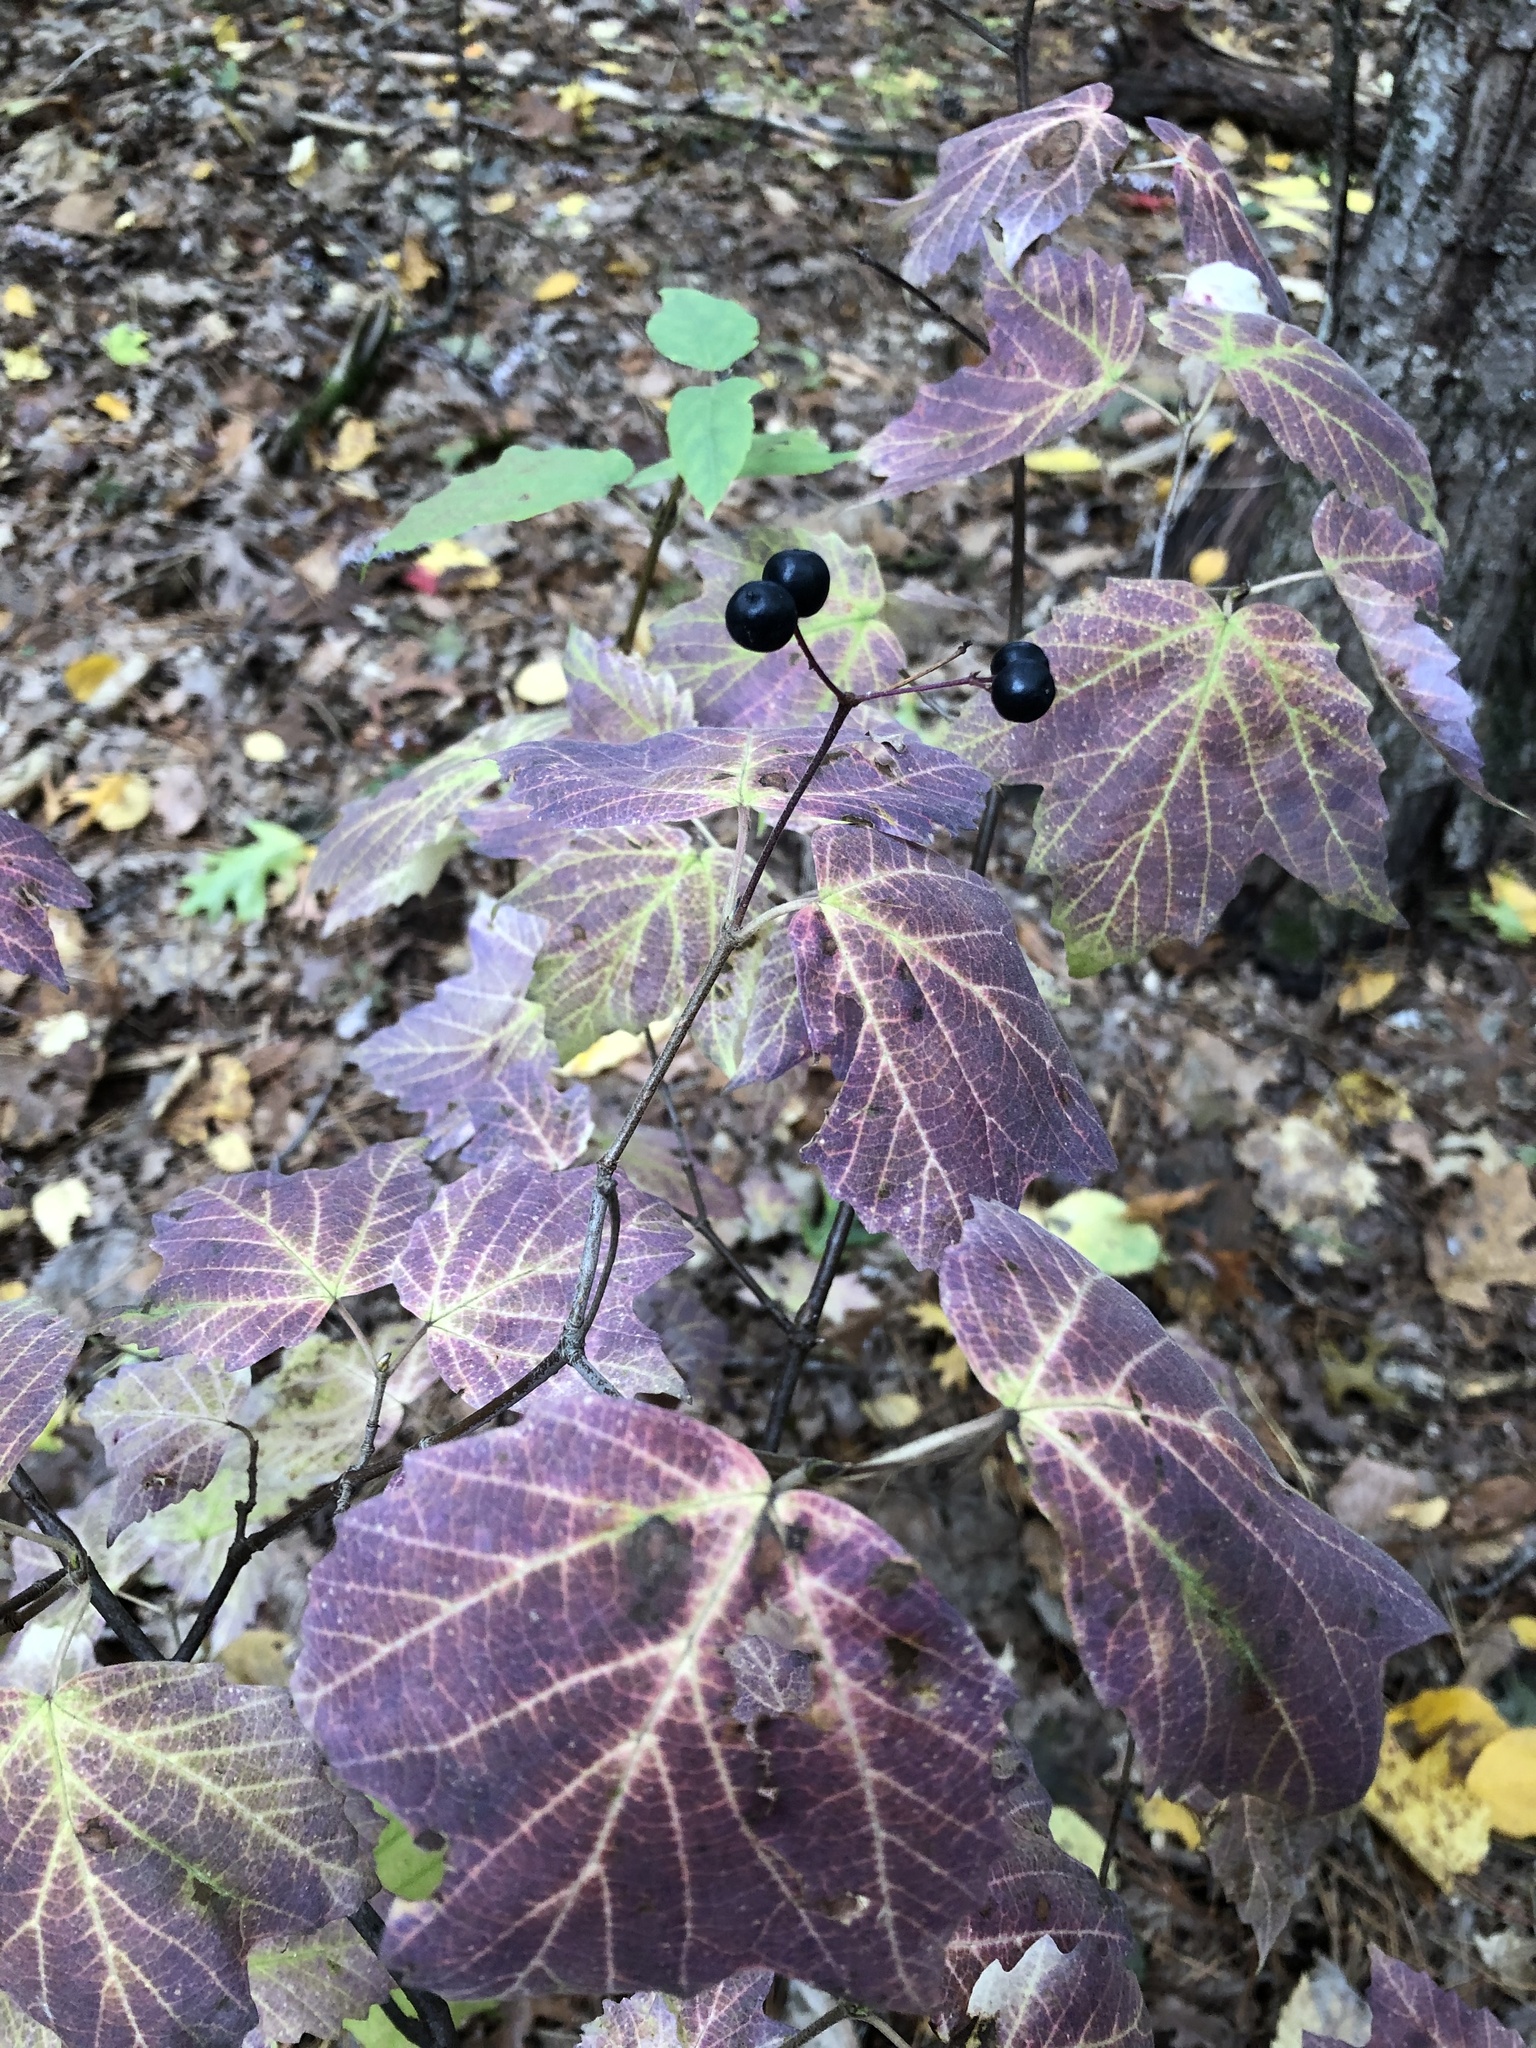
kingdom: Plantae
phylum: Tracheophyta
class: Magnoliopsida
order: Dipsacales
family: Viburnaceae
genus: Viburnum
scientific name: Viburnum acerifolium
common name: Dockmackie
